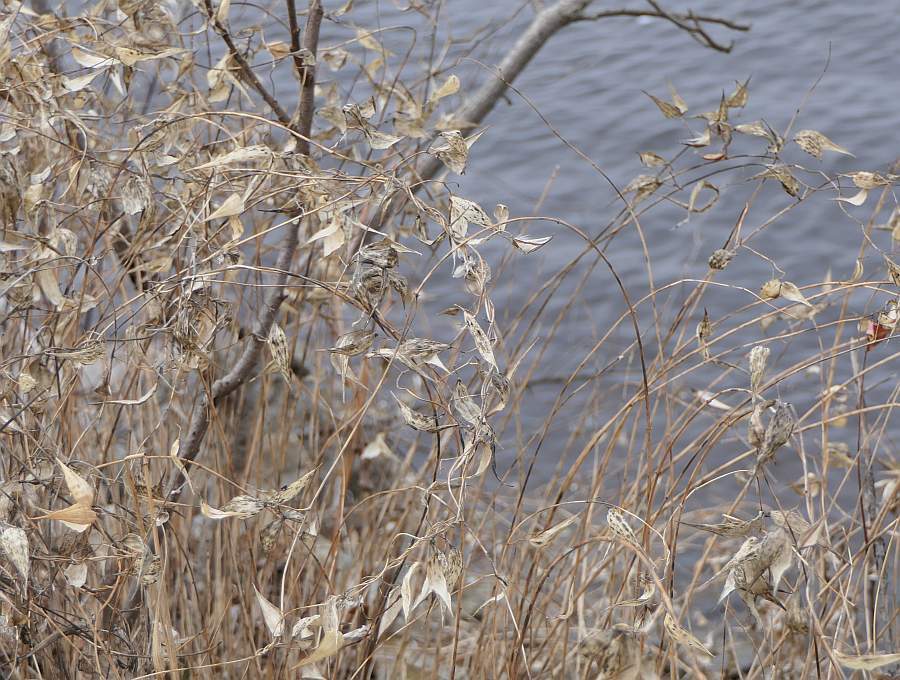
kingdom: Plantae
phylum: Tracheophyta
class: Magnoliopsida
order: Gentianales
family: Apocynaceae
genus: Vincetoxicum
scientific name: Vincetoxicum rossicum
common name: Dog-strangling vine
